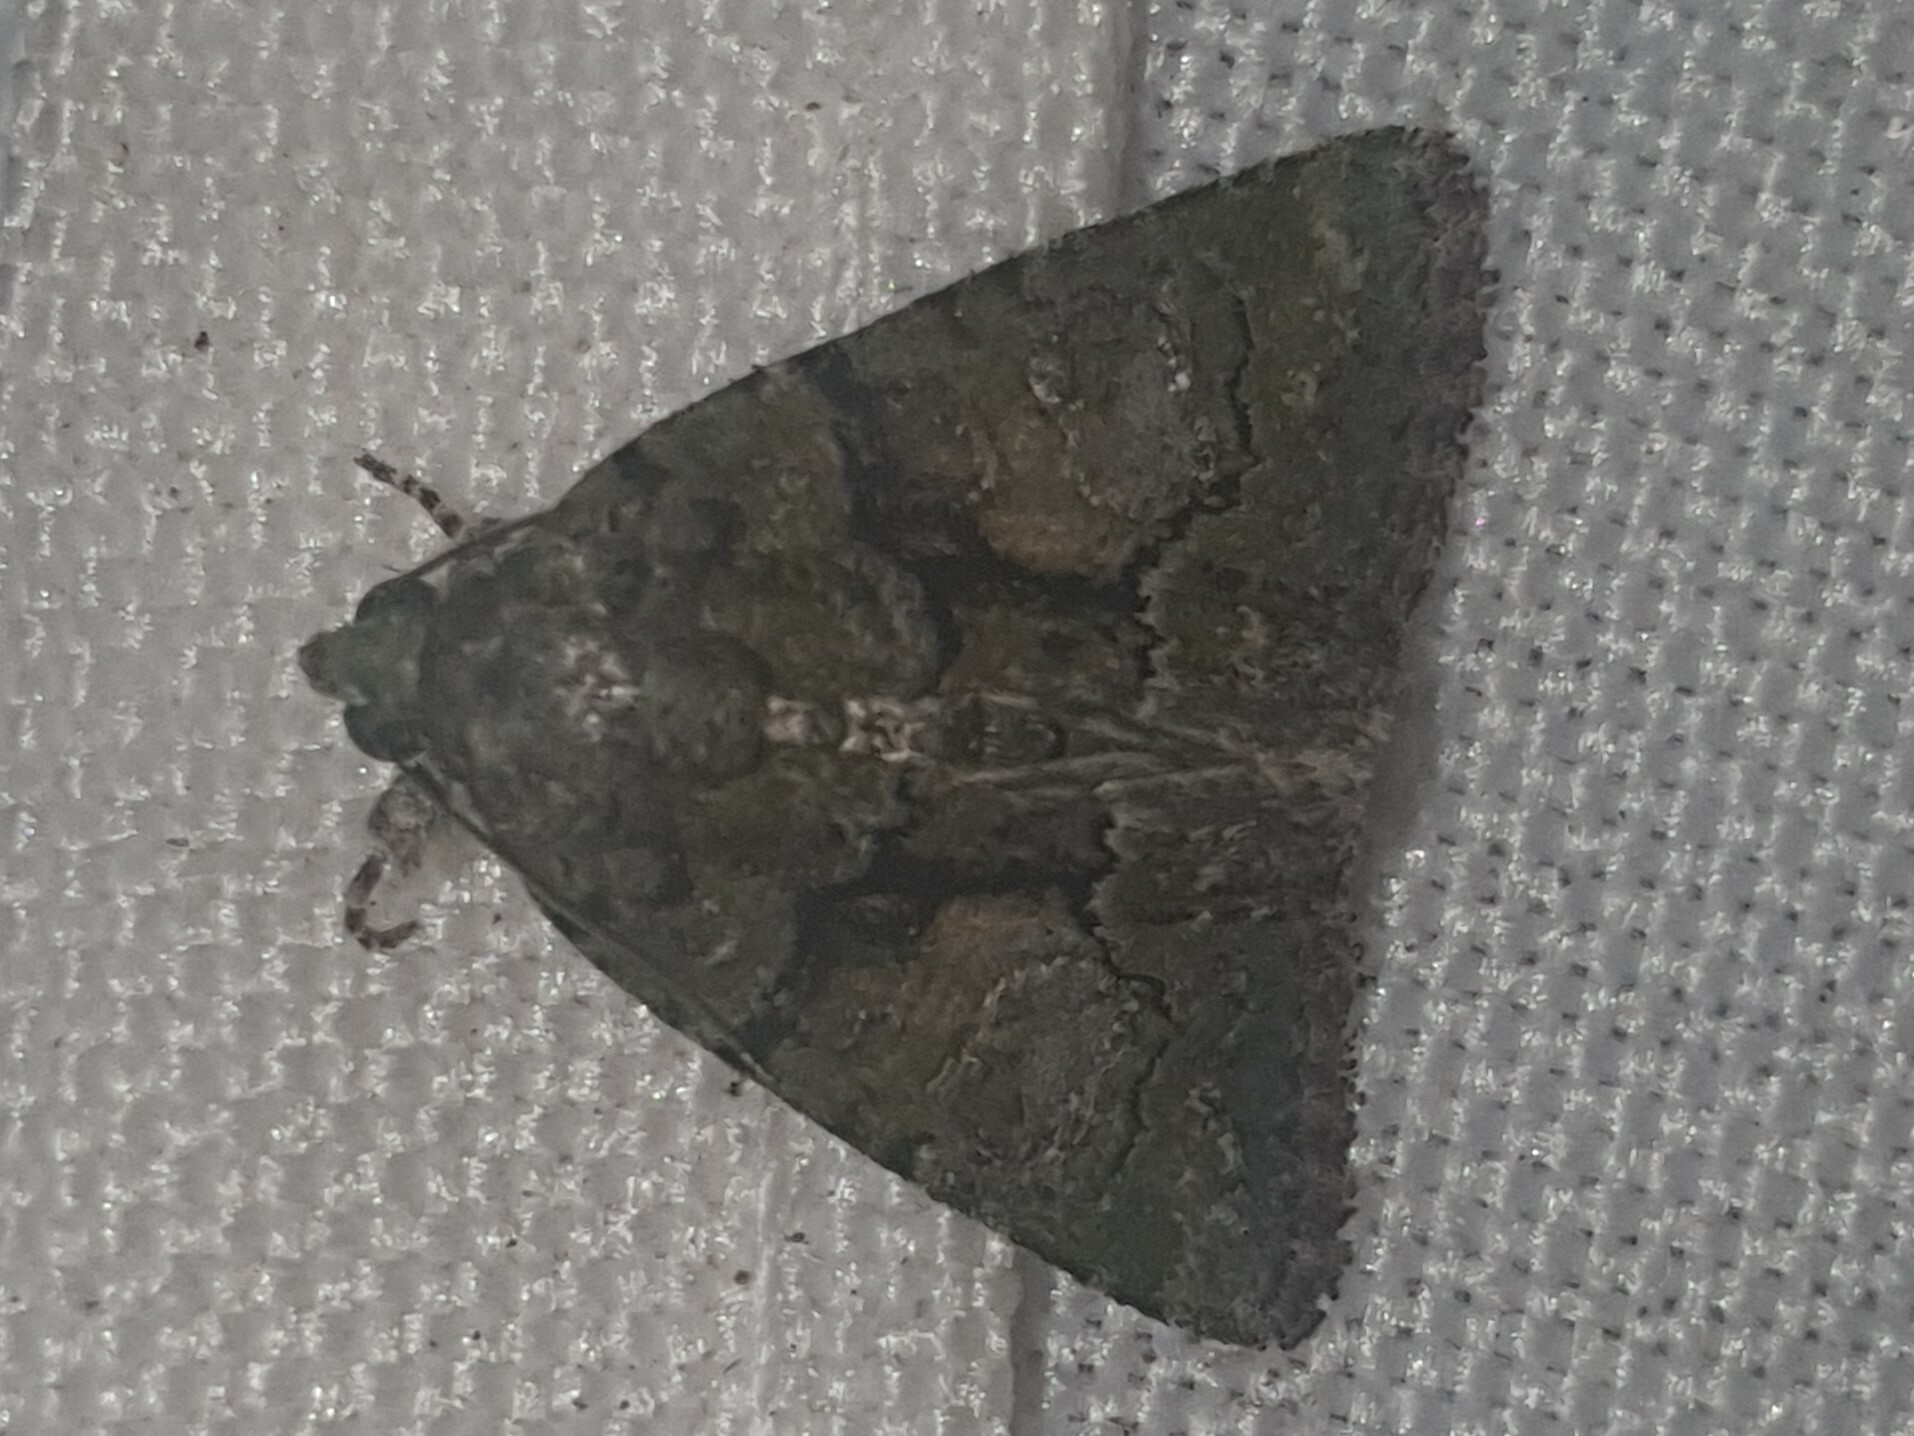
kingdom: Animalia
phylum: Arthropoda
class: Insecta
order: Lepidoptera
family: Noctuidae
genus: Cryphia
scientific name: Cryphia algae
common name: Tree-lichen beauty
